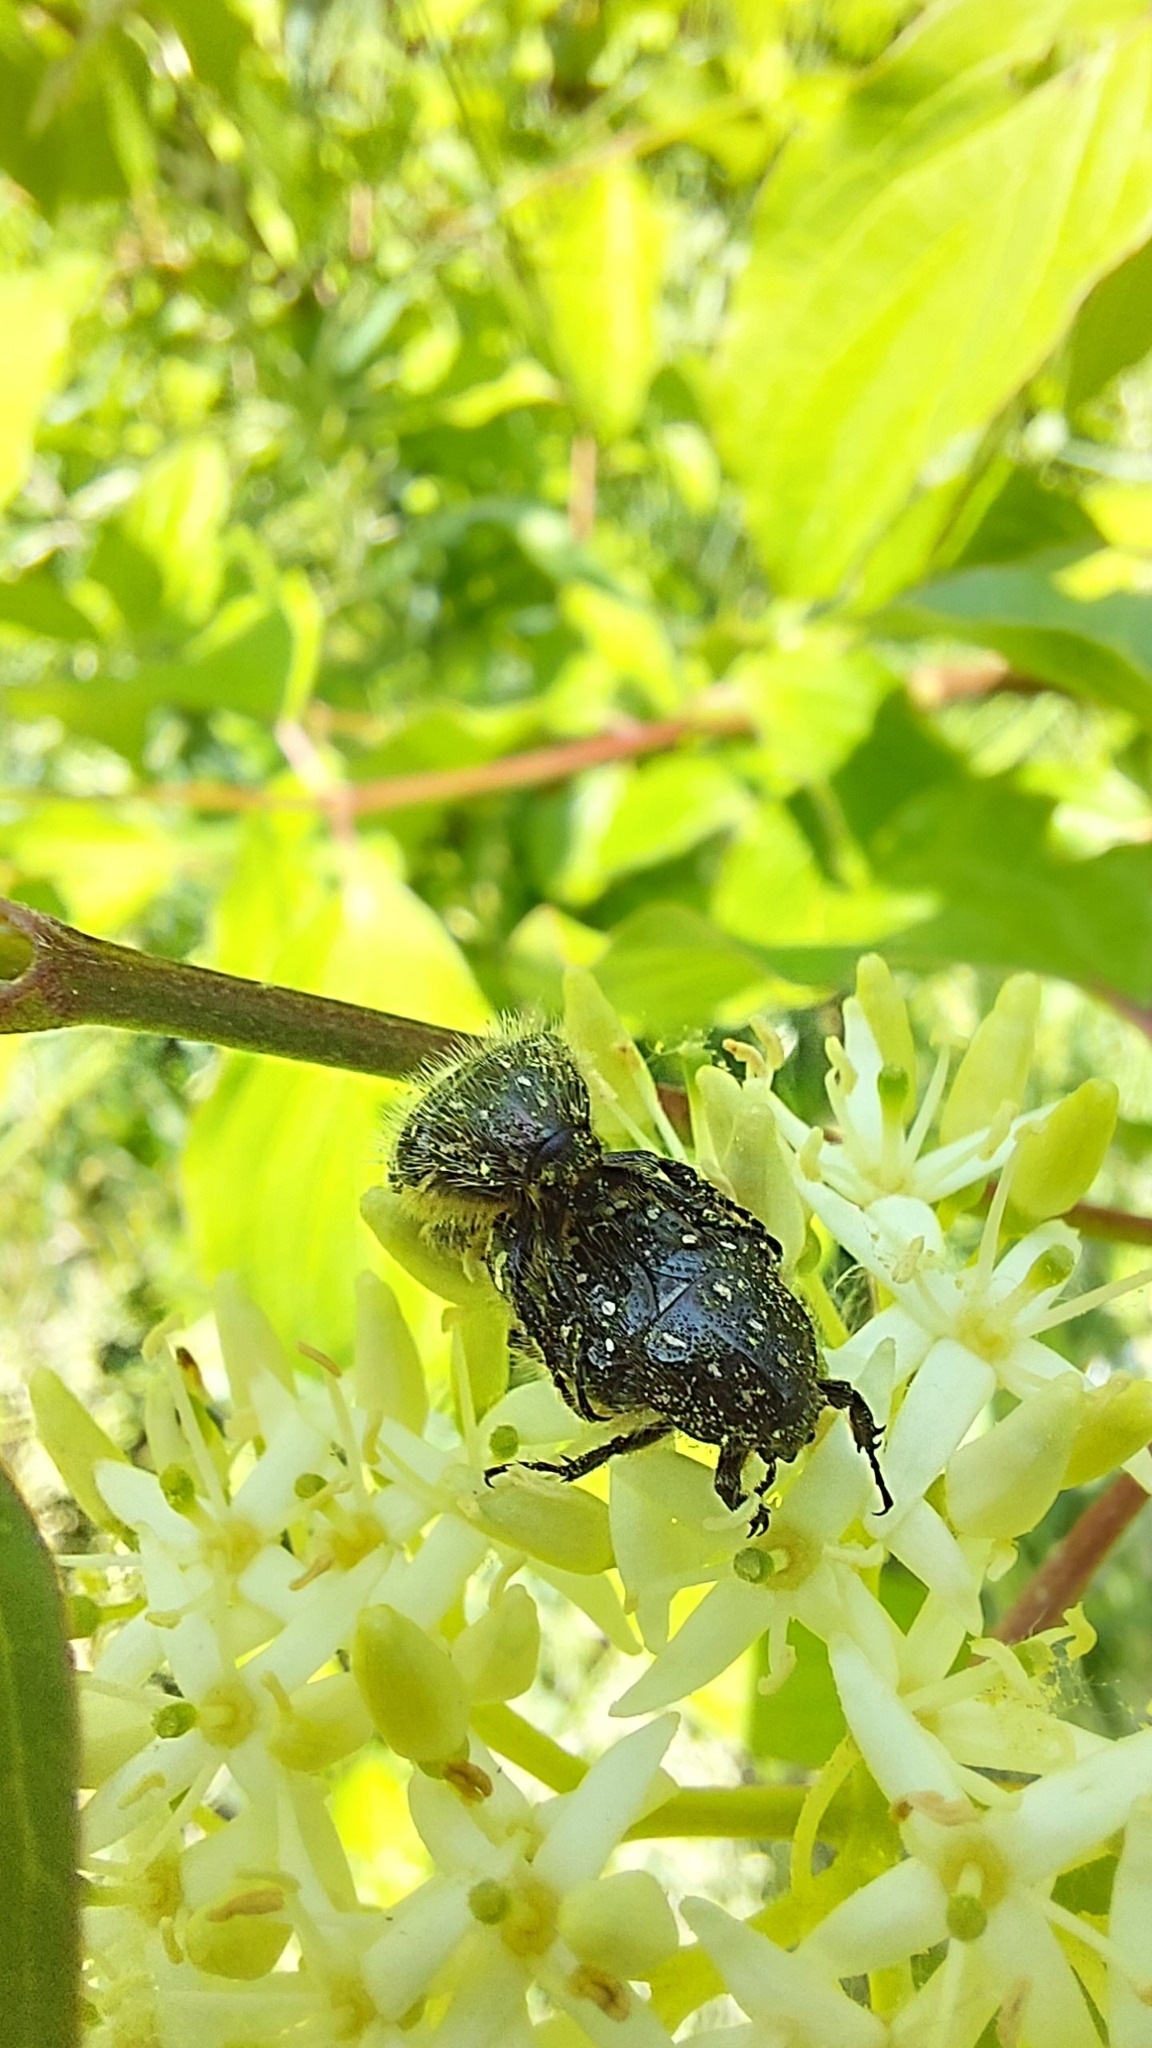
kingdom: Animalia
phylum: Arthropoda
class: Insecta
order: Coleoptera
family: Scarabaeidae
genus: Oxythyrea
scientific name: Oxythyrea funesta
